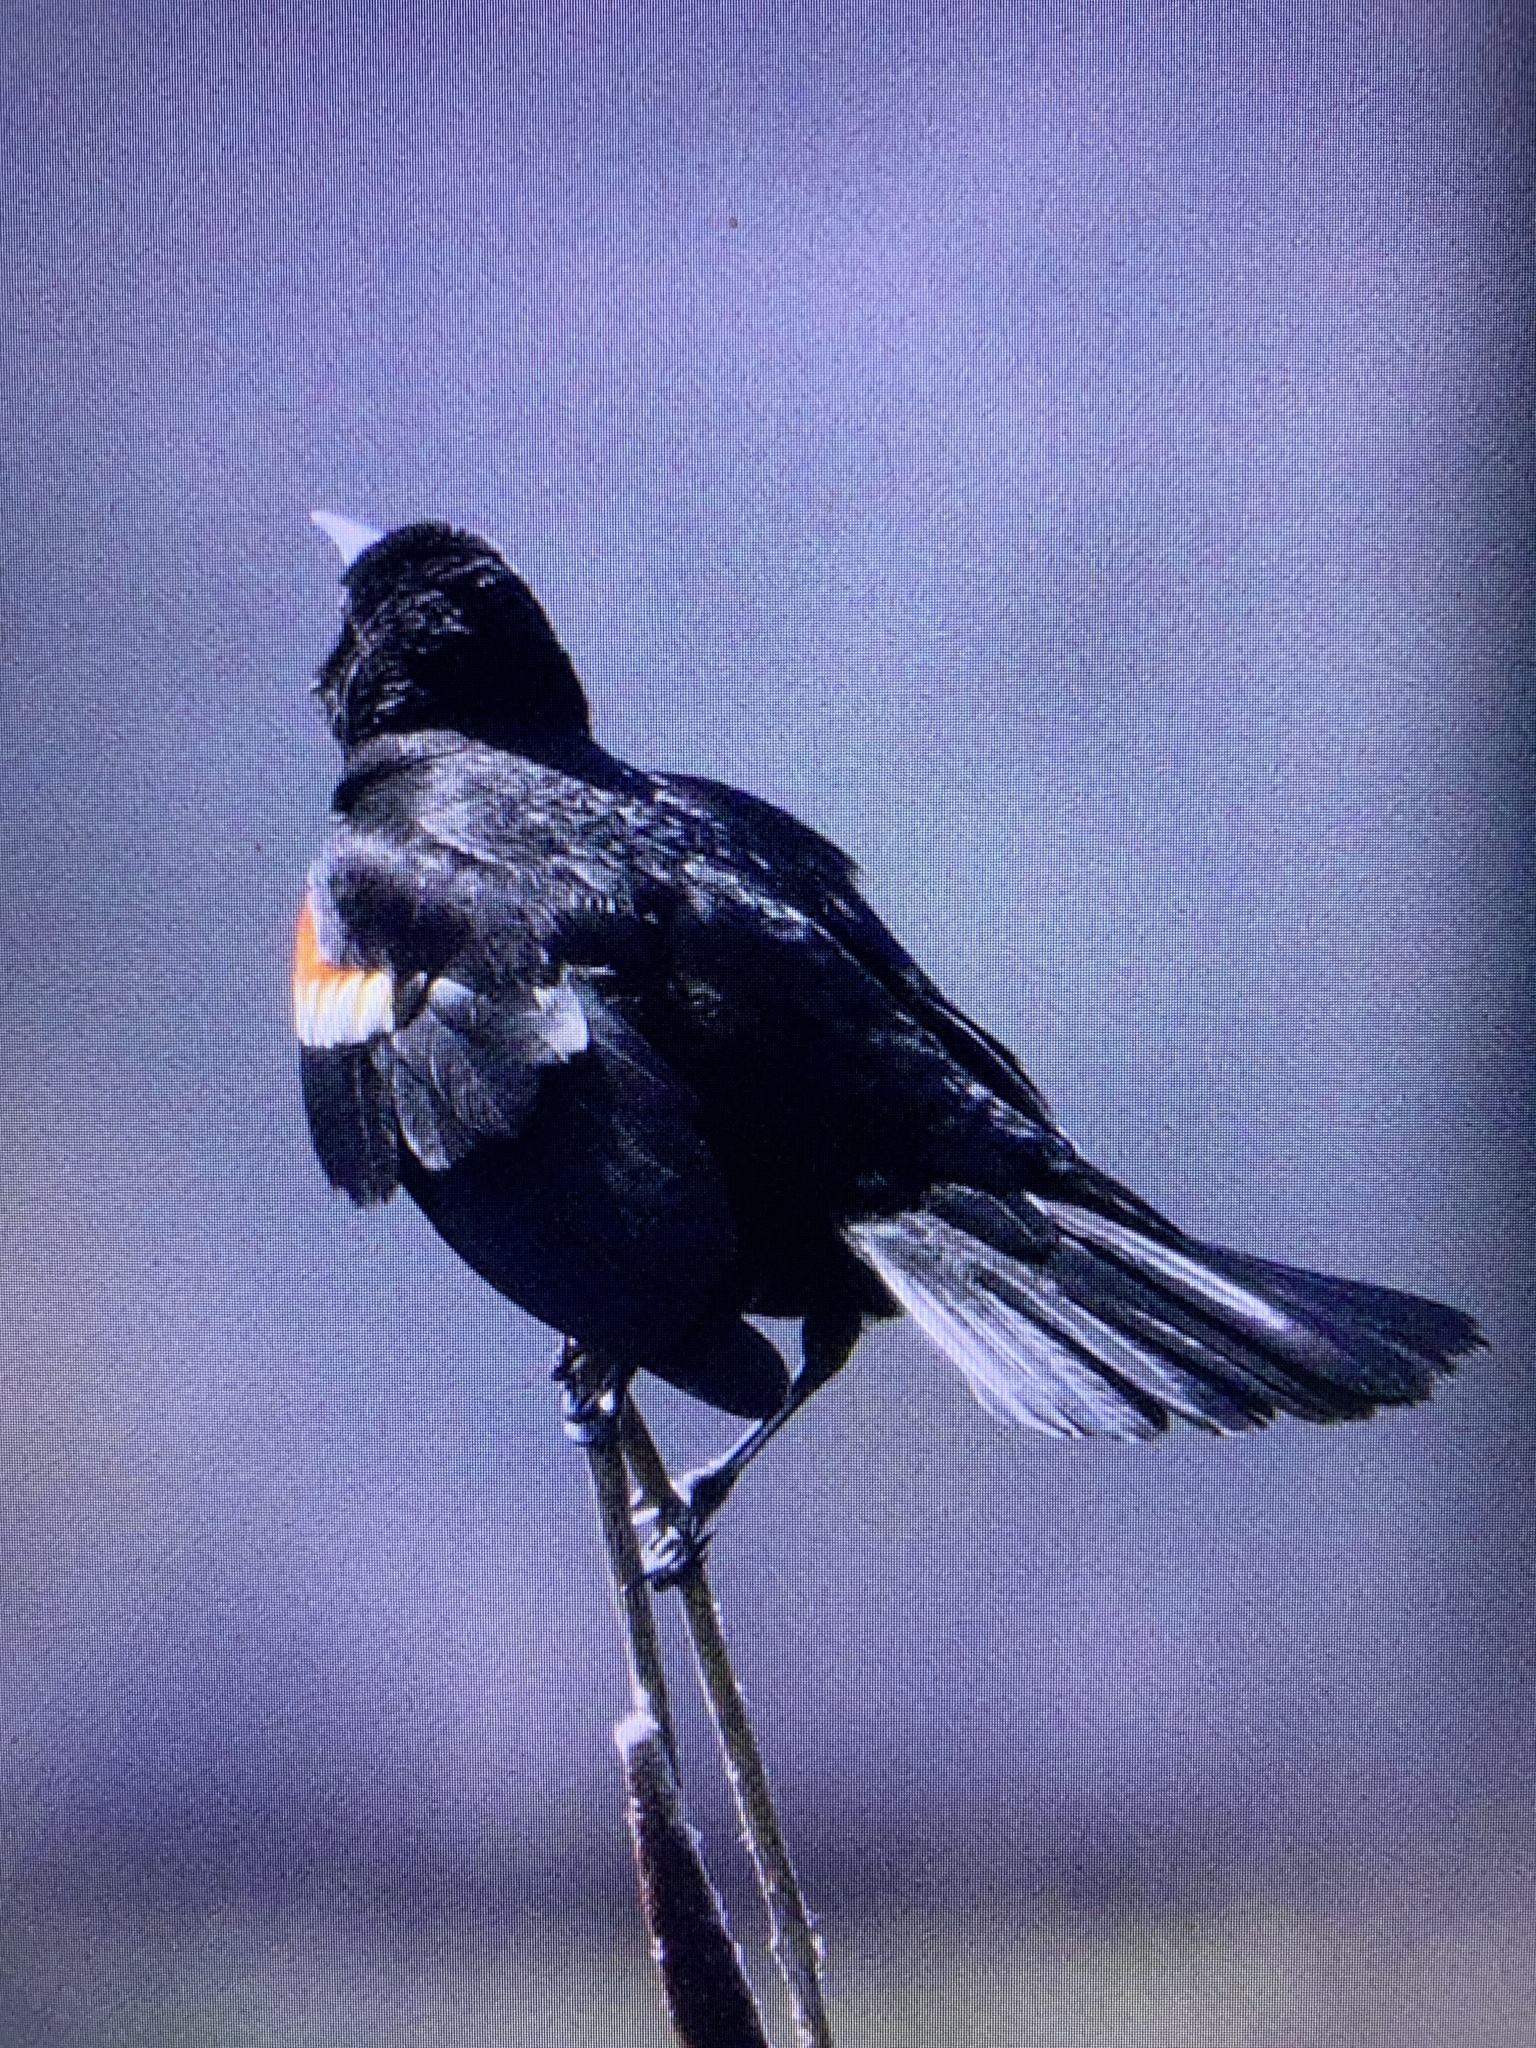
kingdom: Animalia
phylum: Chordata
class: Aves
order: Passeriformes
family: Icteridae
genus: Agelaius
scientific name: Agelaius phoeniceus
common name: Red-winged blackbird
